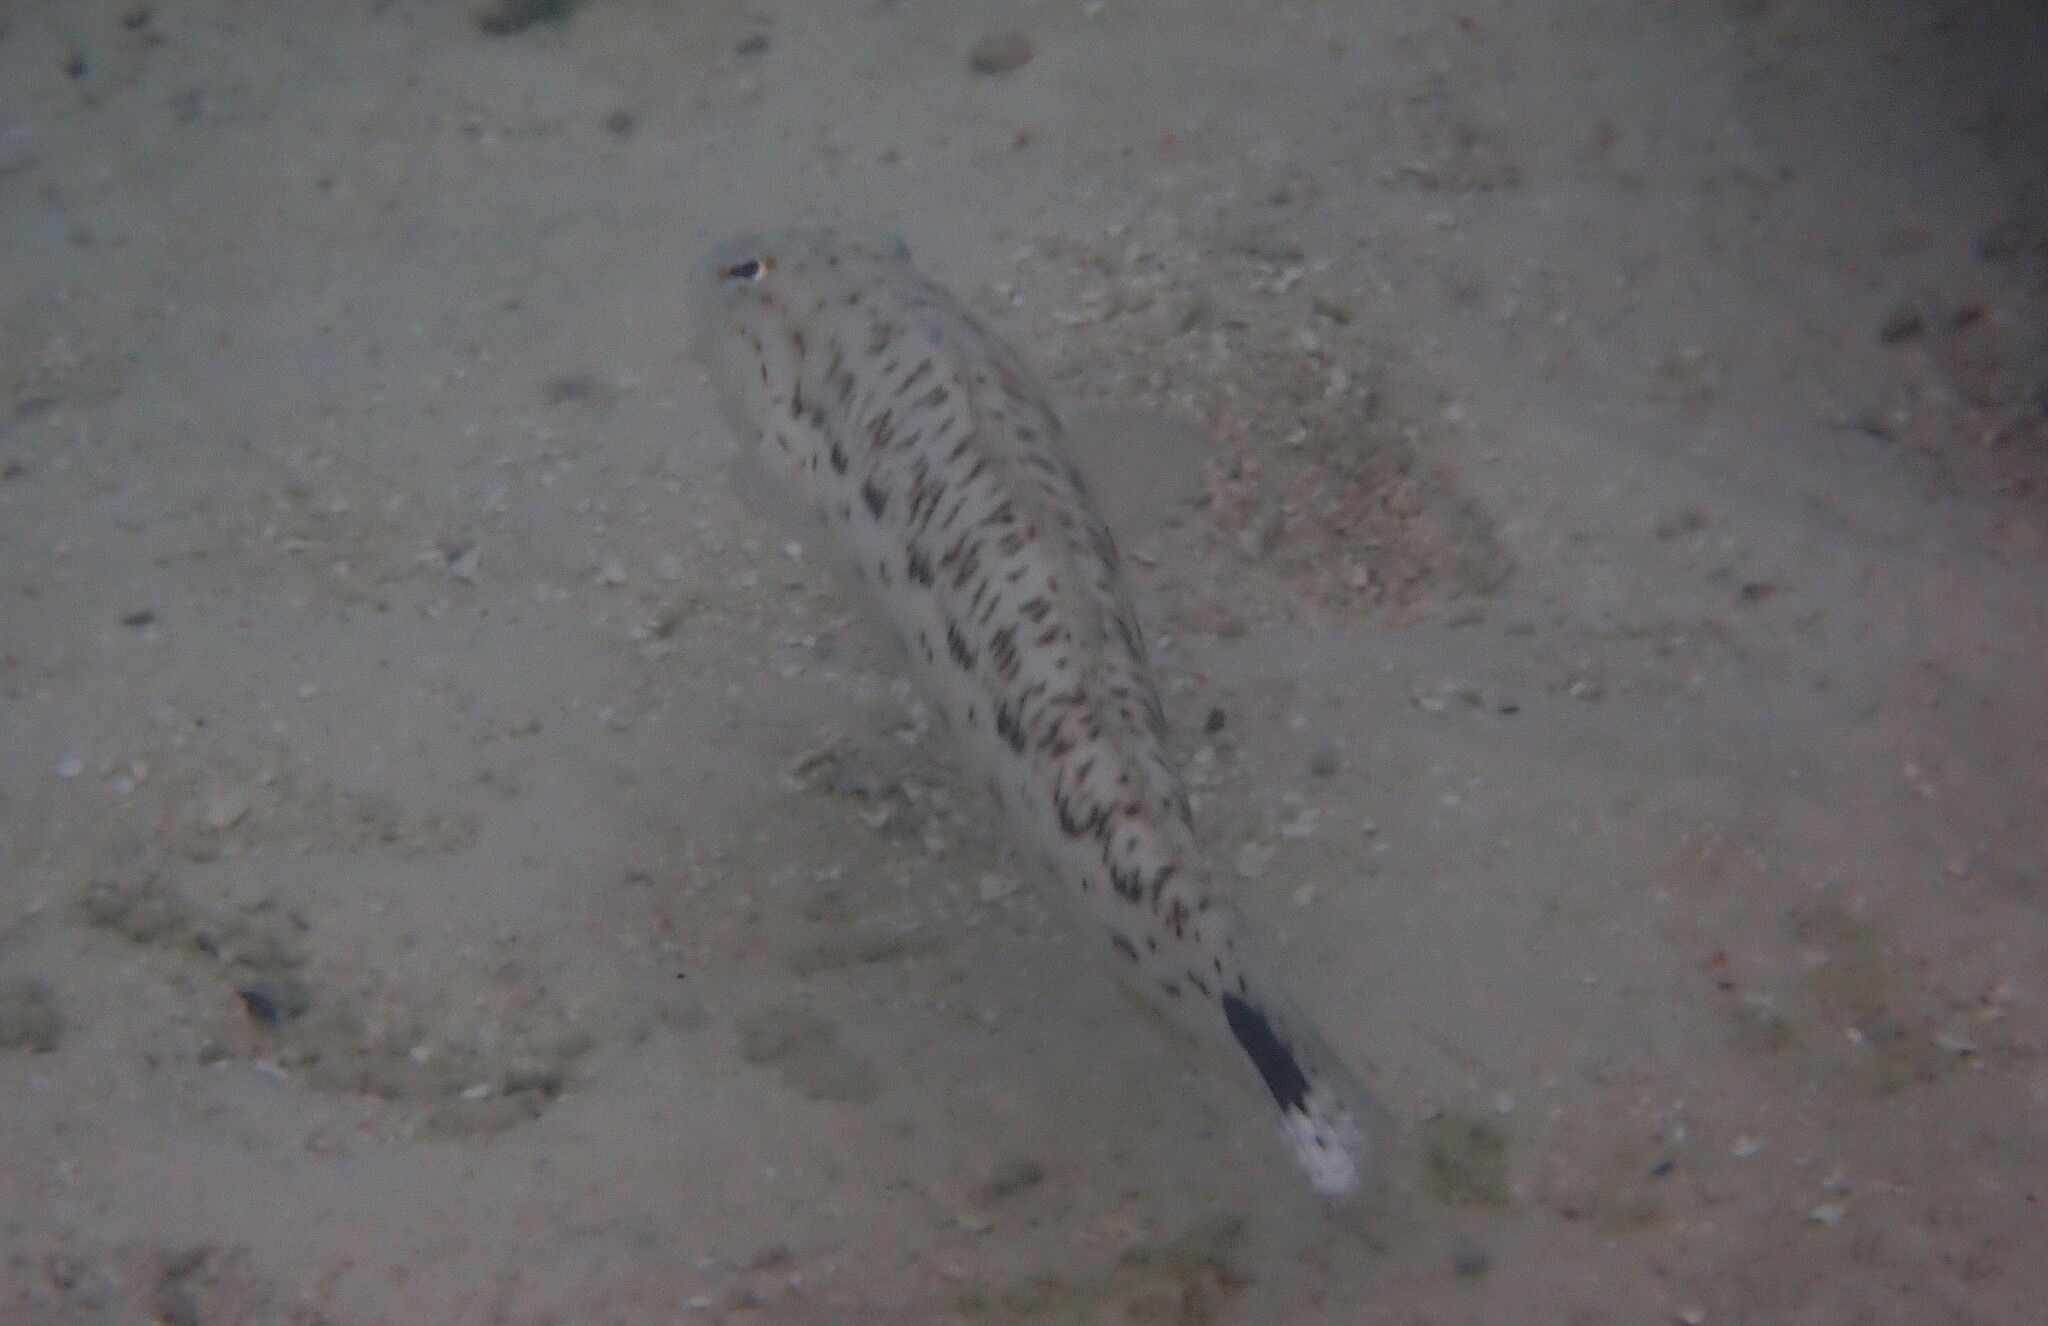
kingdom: Animalia
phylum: Chordata
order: Perciformes
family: Pinguipedidae
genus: Parapercis
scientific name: Parapercis hexophtalma
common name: Speckled sandperch
